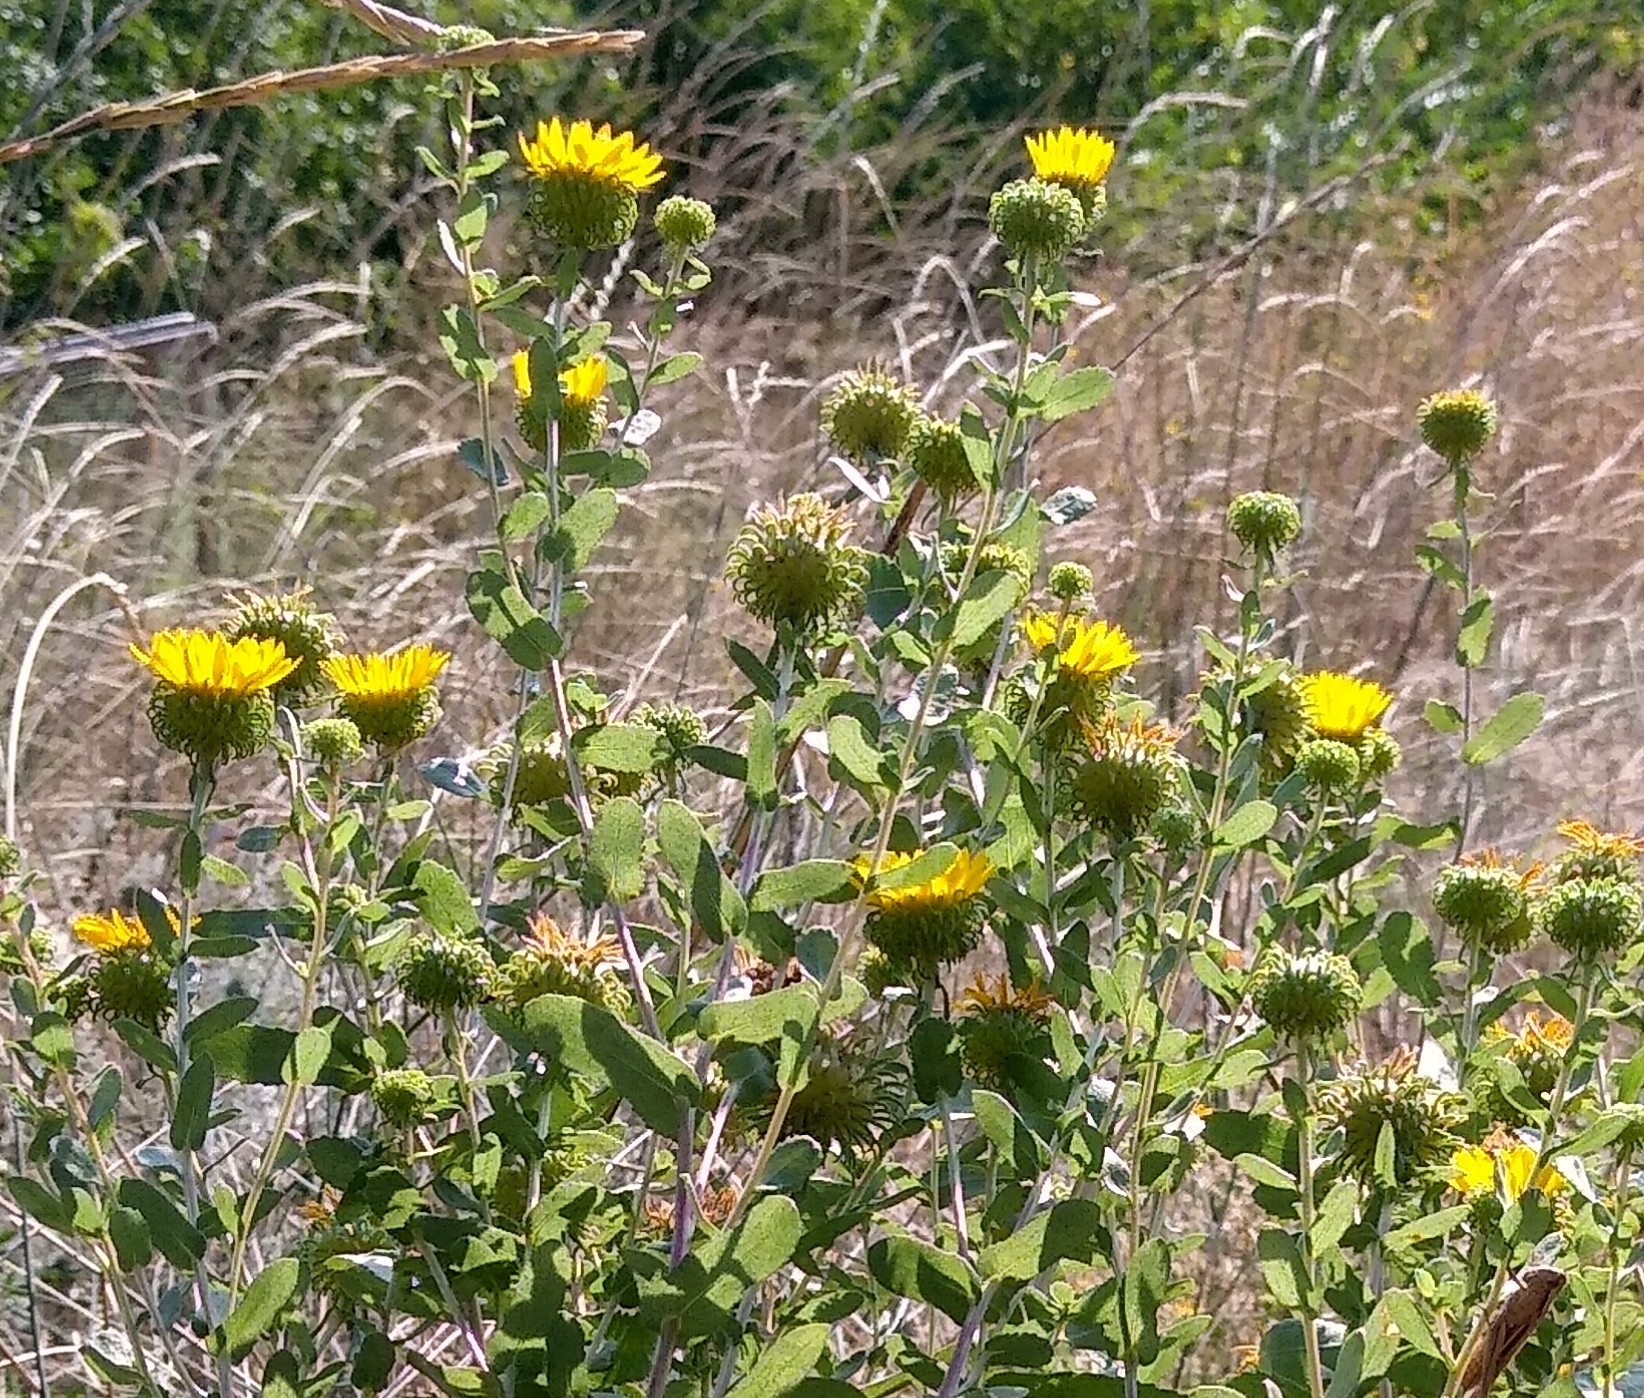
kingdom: Plantae
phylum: Tracheophyta
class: Magnoliopsida
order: Asterales
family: Asteraceae
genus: Grindelia
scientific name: Grindelia squarrosa
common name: Curly-cup gumweed
